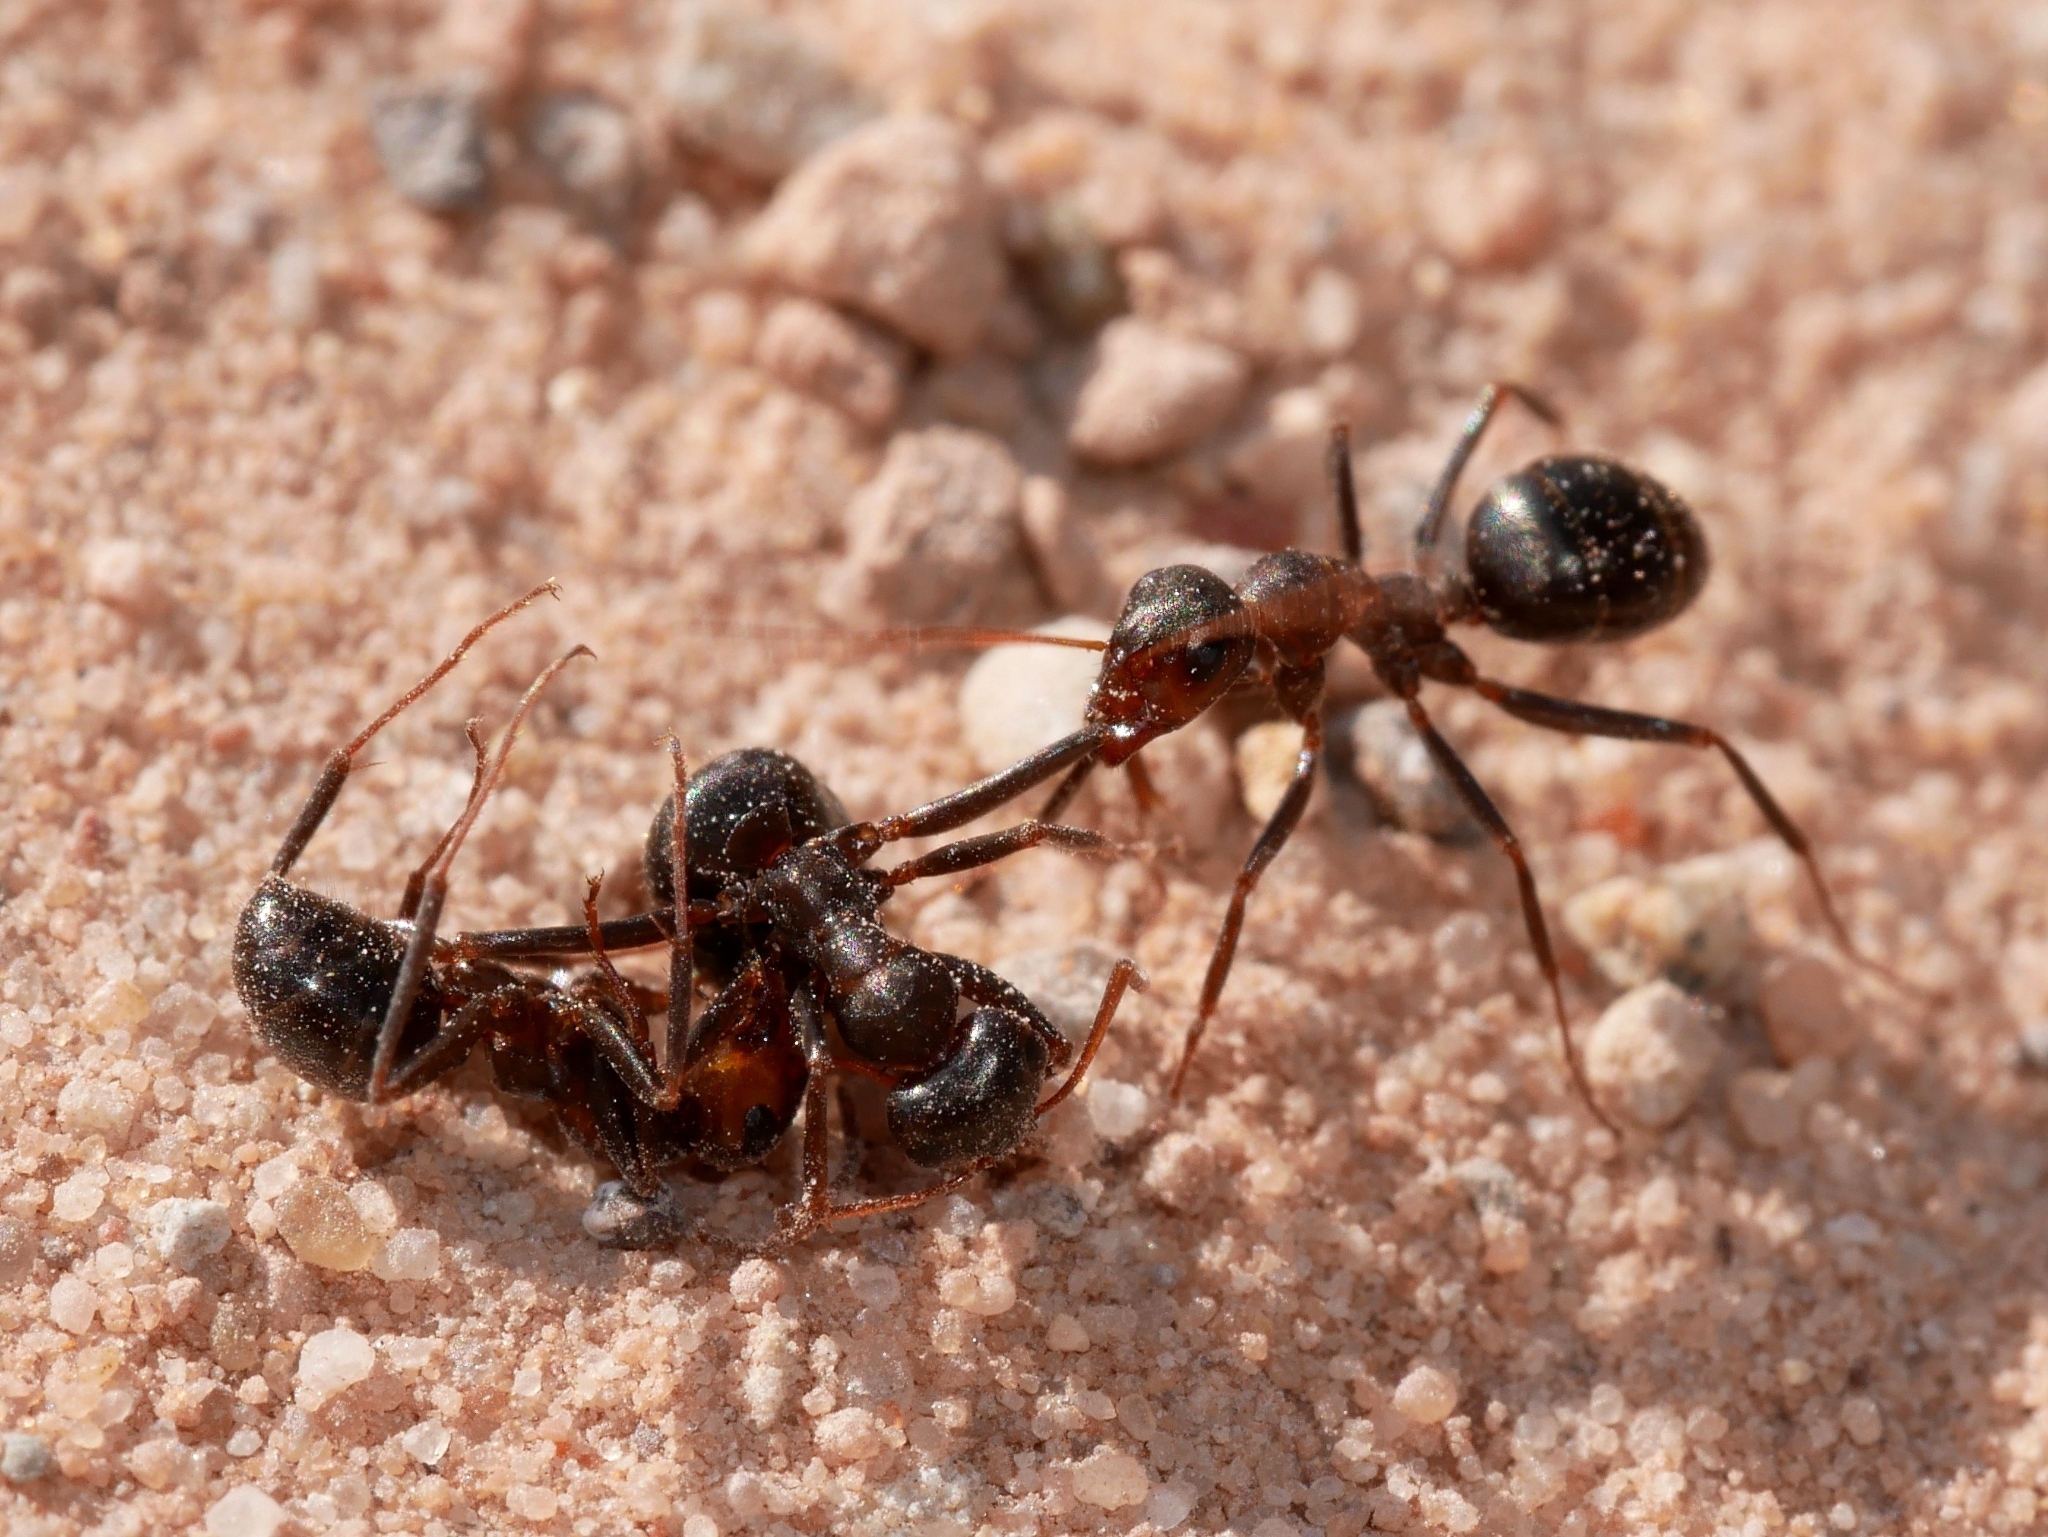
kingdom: Animalia
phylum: Arthropoda
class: Insecta
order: Hymenoptera
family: Formicidae
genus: Formica
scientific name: Formica gnava
